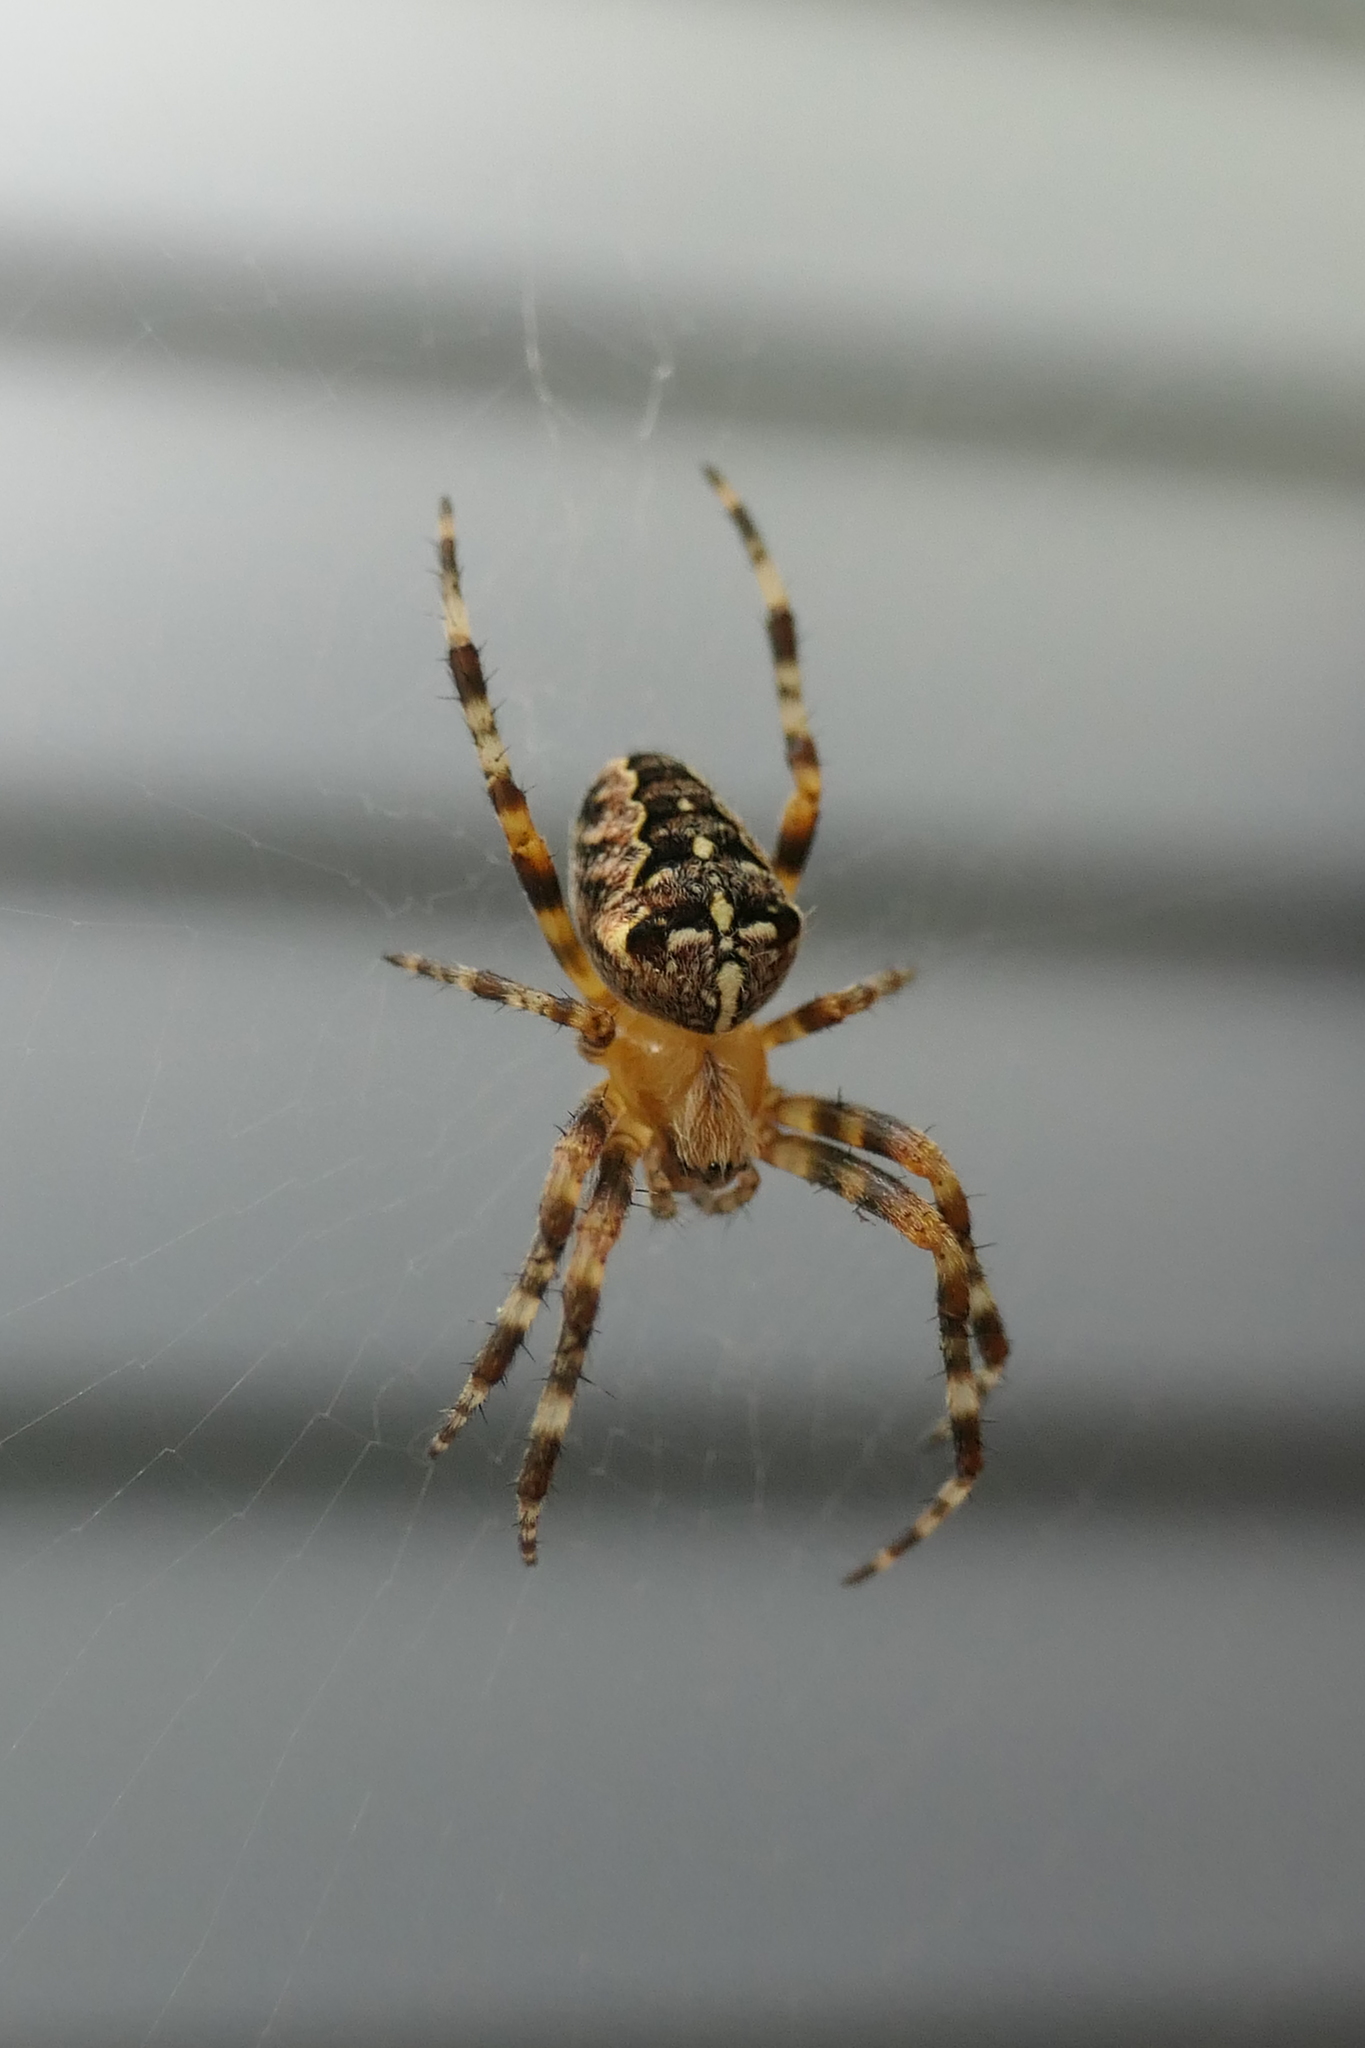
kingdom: Animalia
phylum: Arthropoda
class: Arachnida
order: Araneae
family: Araneidae
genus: Araneus
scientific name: Araneus diadematus
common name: Cross orbweaver
